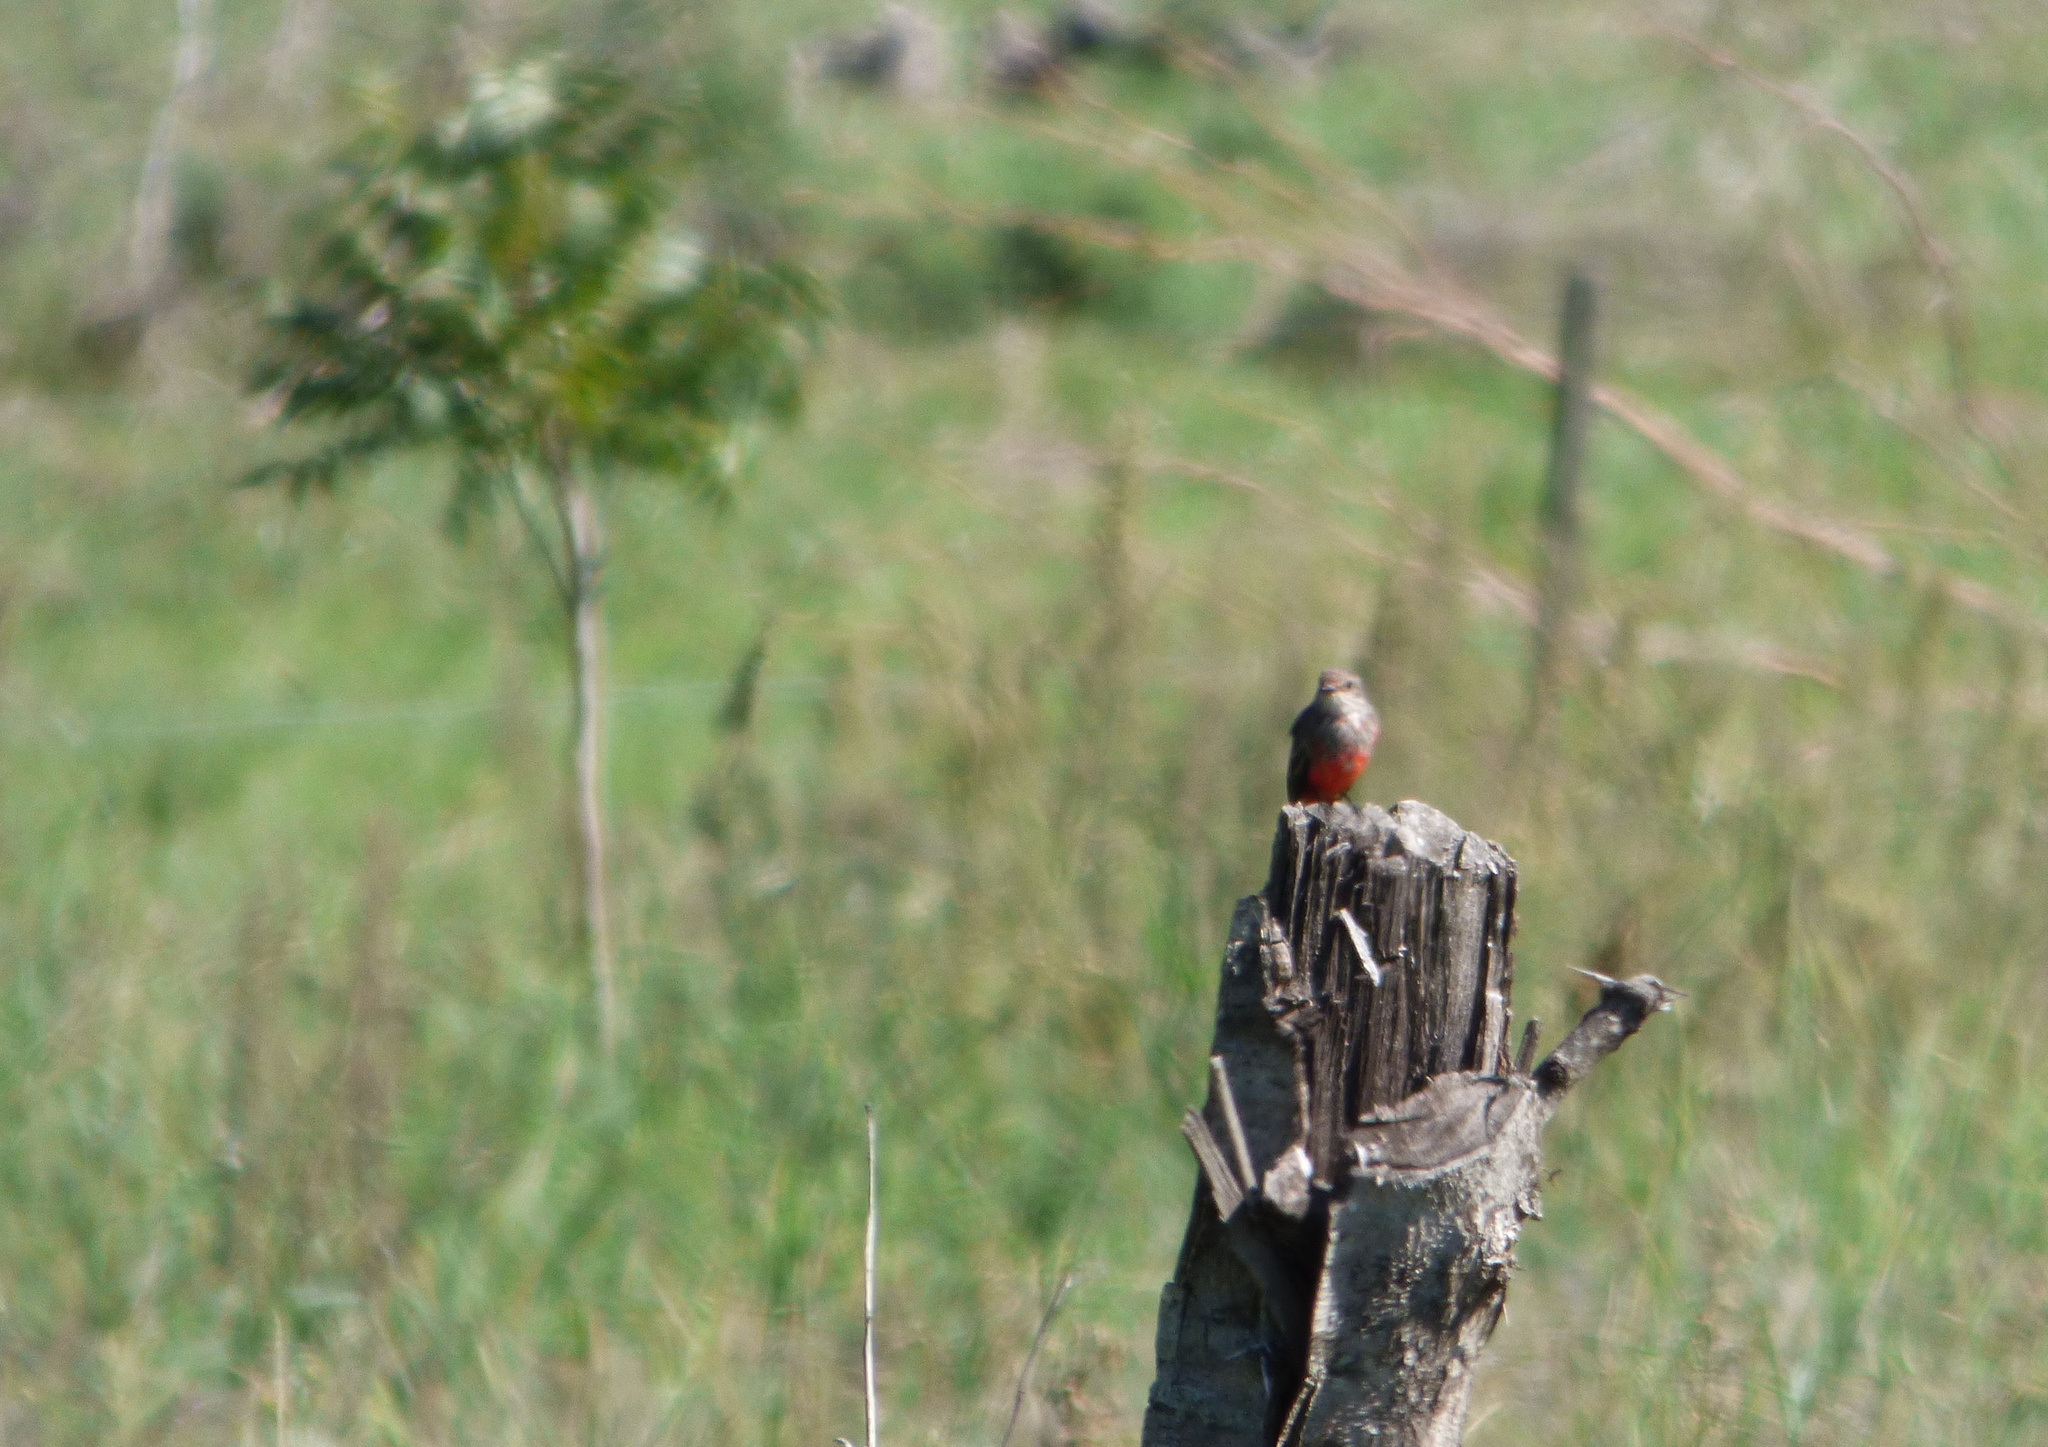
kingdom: Animalia
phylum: Chordata
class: Aves
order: Passeriformes
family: Tyrannidae
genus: Pyrocephalus
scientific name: Pyrocephalus rubinus
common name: Vermilion flycatcher
